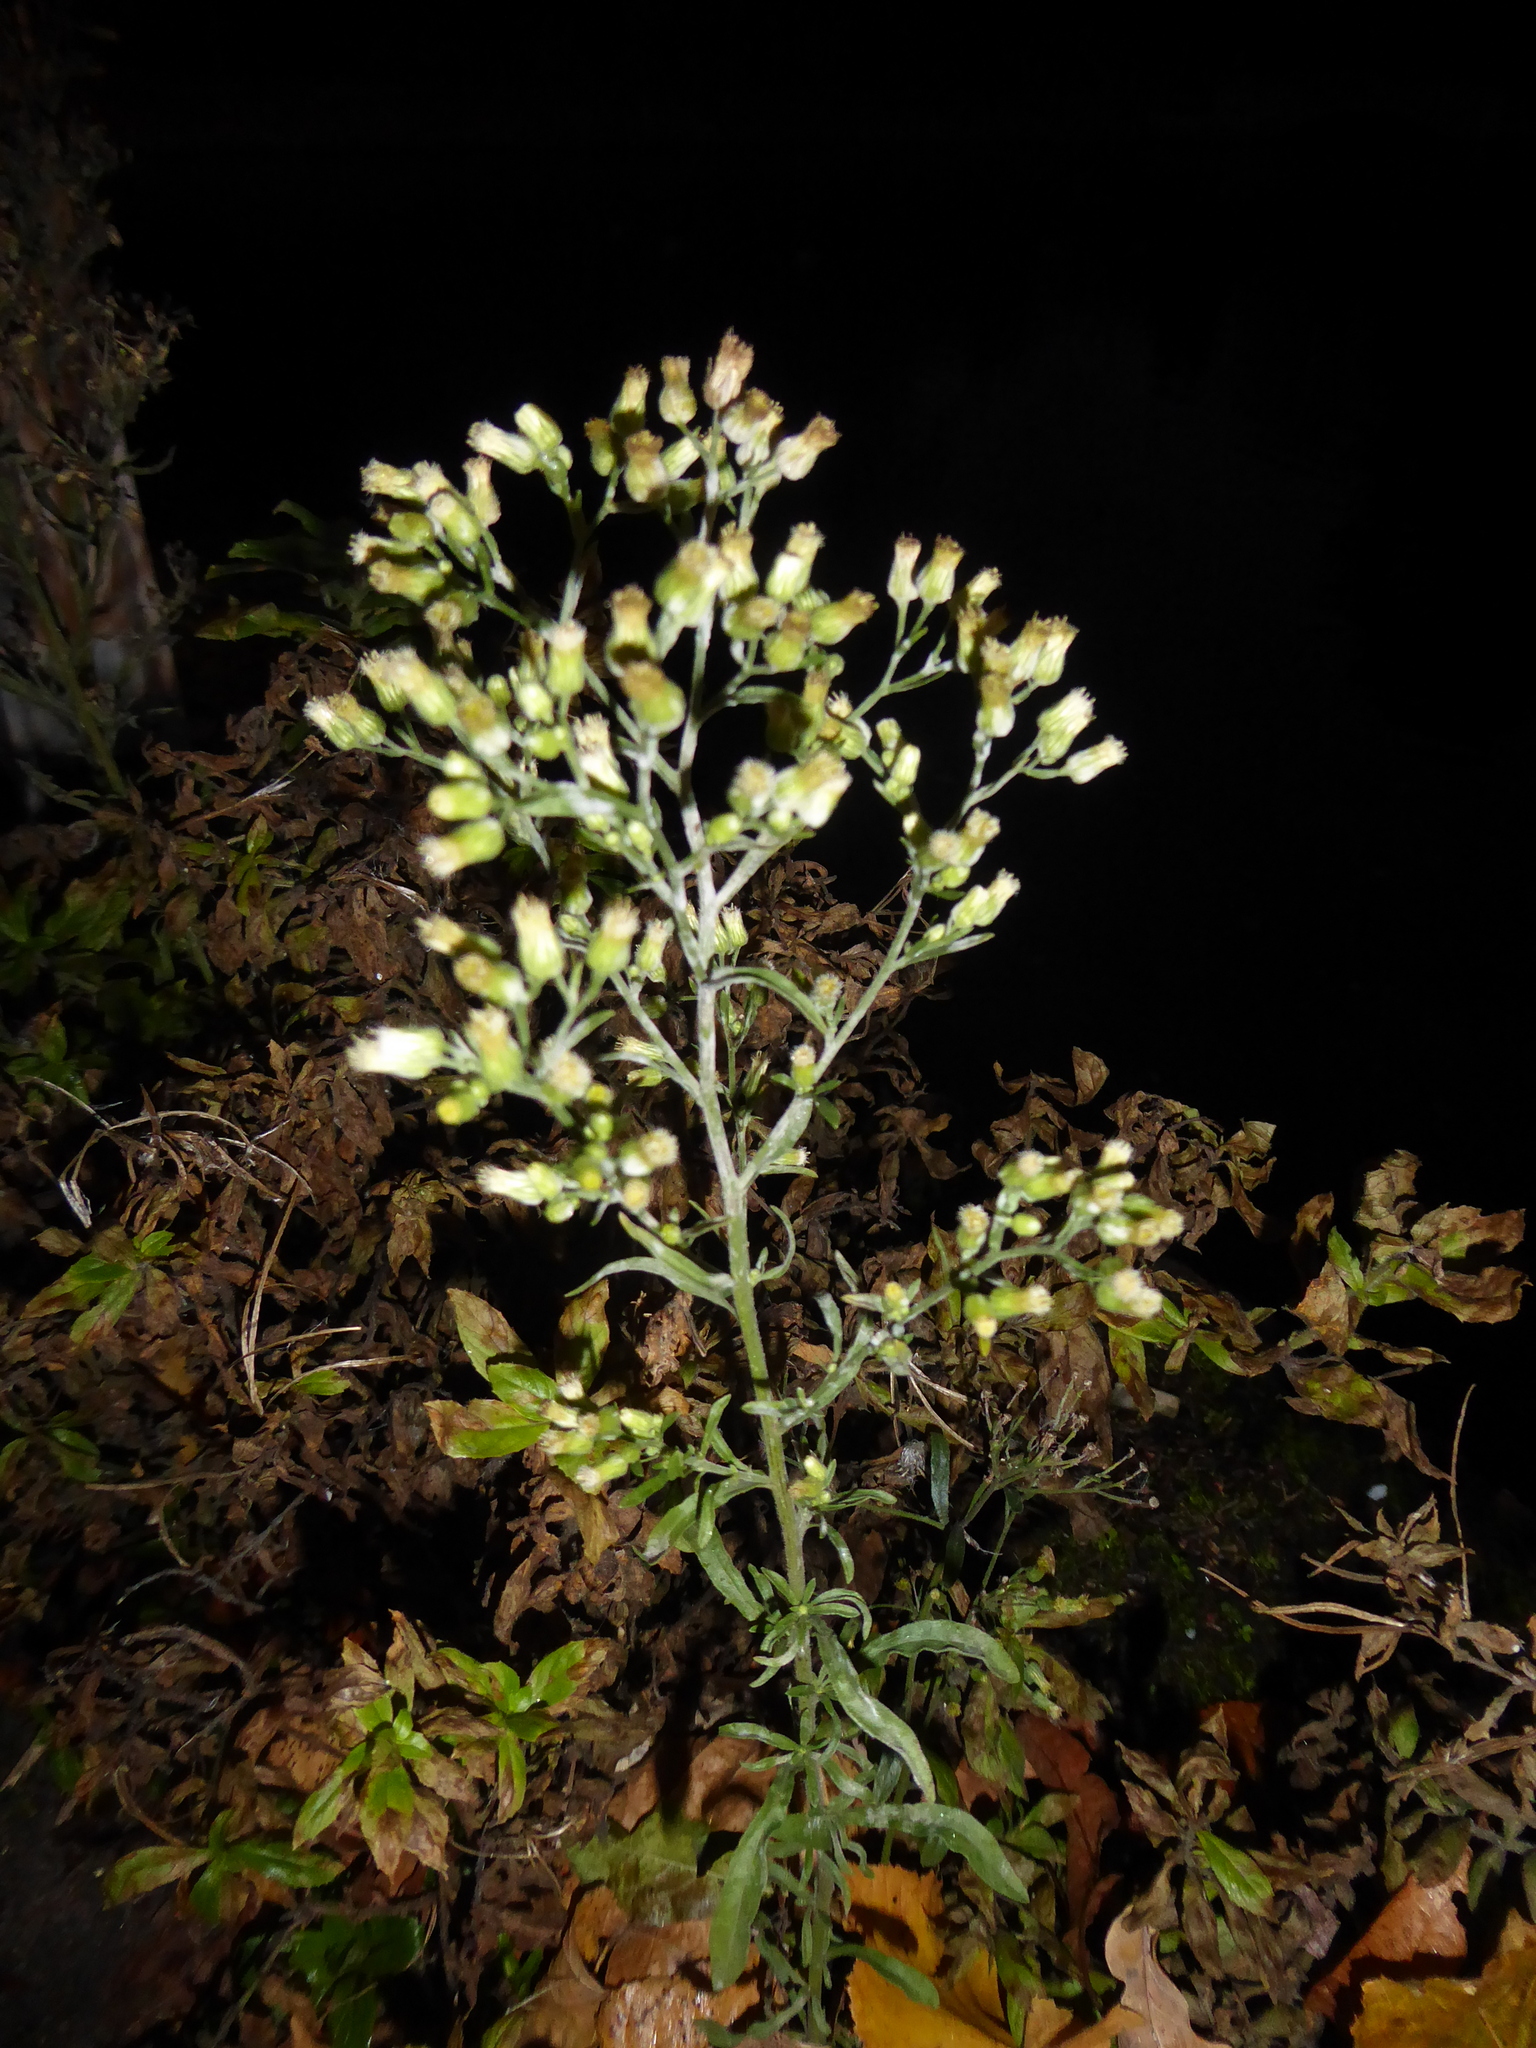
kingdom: Plantae
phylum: Tracheophyta
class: Magnoliopsida
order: Asterales
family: Asteraceae
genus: Erigeron
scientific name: Erigeron sumatrensis
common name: Daisy
